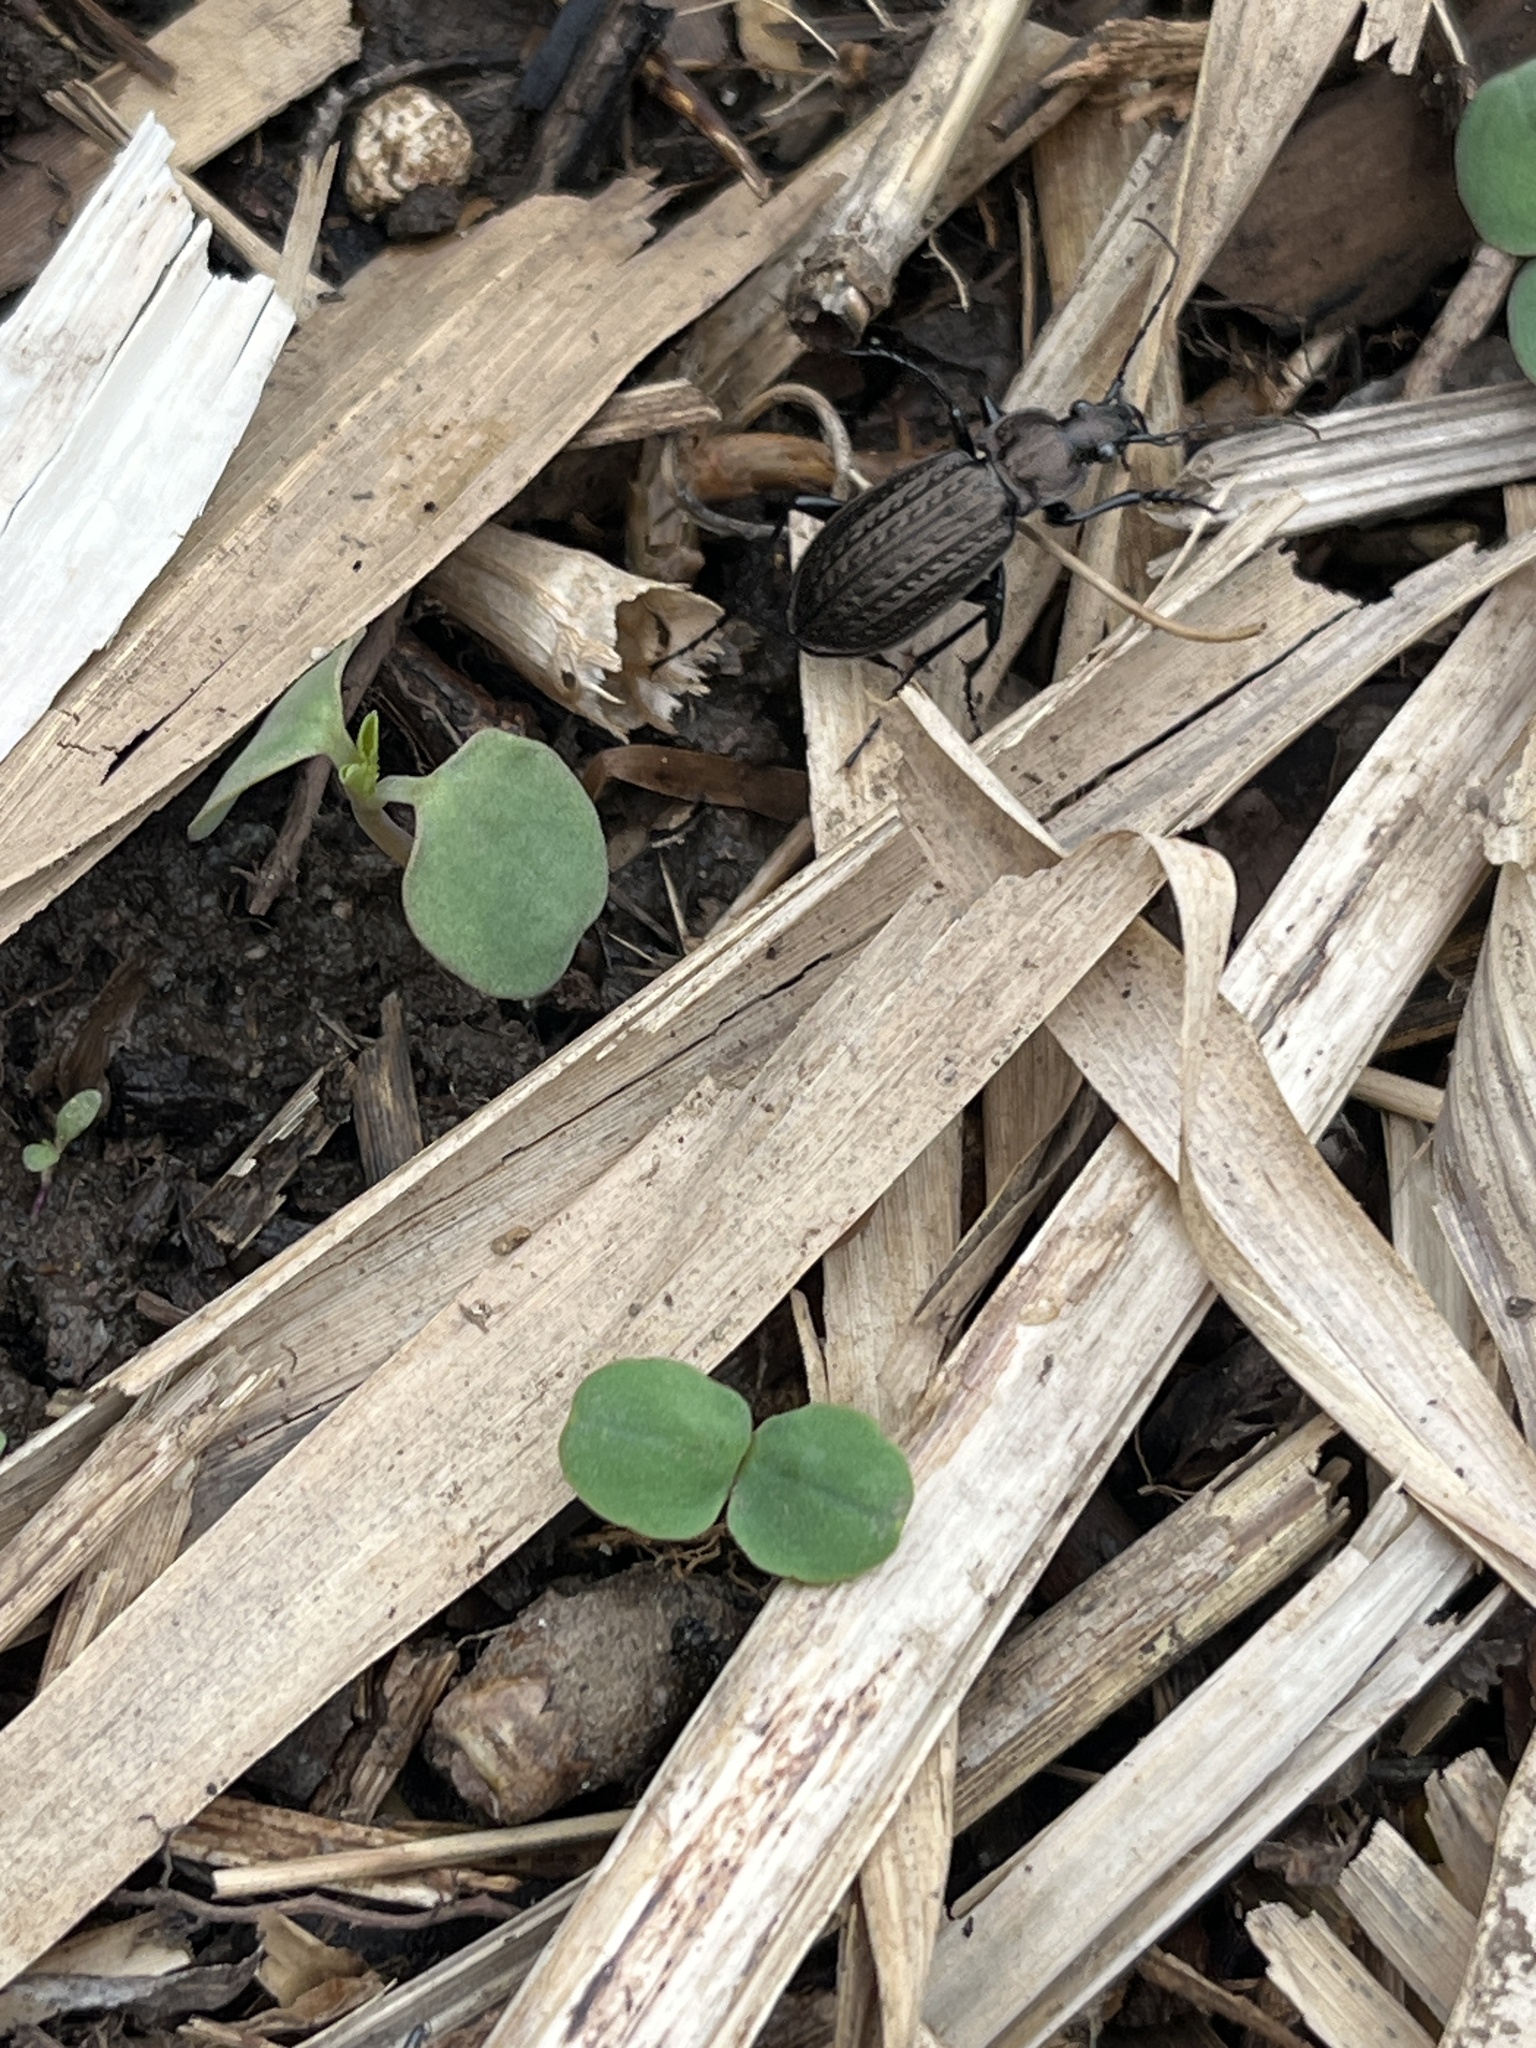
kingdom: Animalia
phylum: Arthropoda
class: Insecta
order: Coleoptera
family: Carabidae
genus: Carabus
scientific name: Carabus granulatus
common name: Granulate ground beetle
